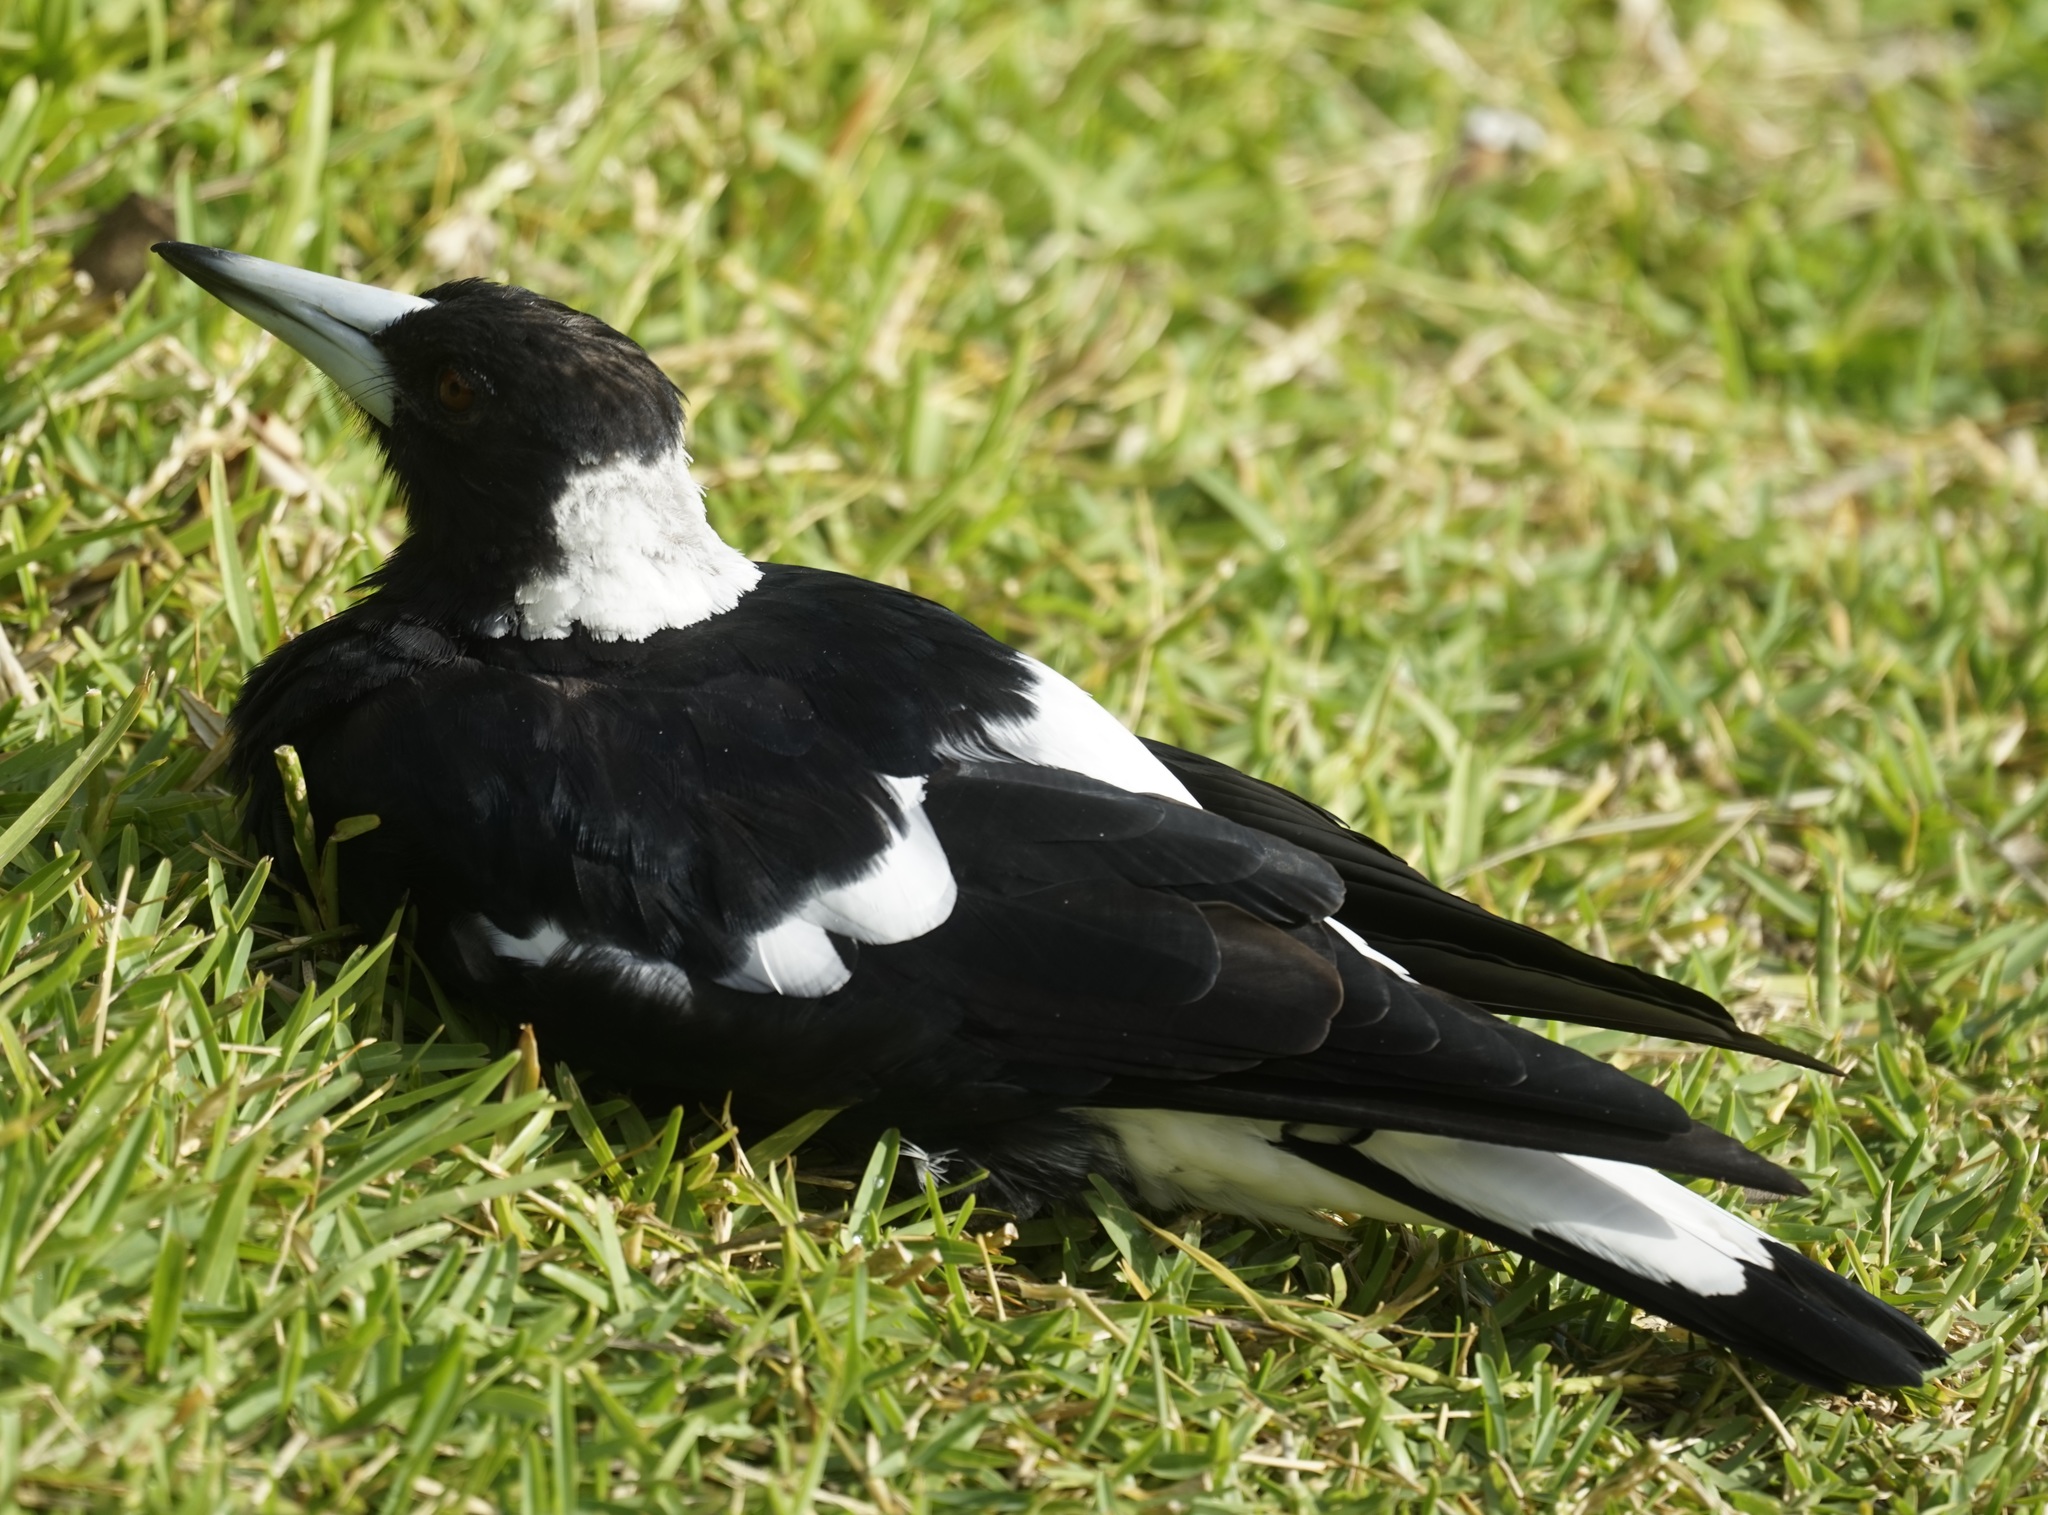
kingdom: Animalia
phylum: Chordata
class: Aves
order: Passeriformes
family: Cracticidae
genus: Gymnorhina
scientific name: Gymnorhina tibicen
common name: Australian magpie
